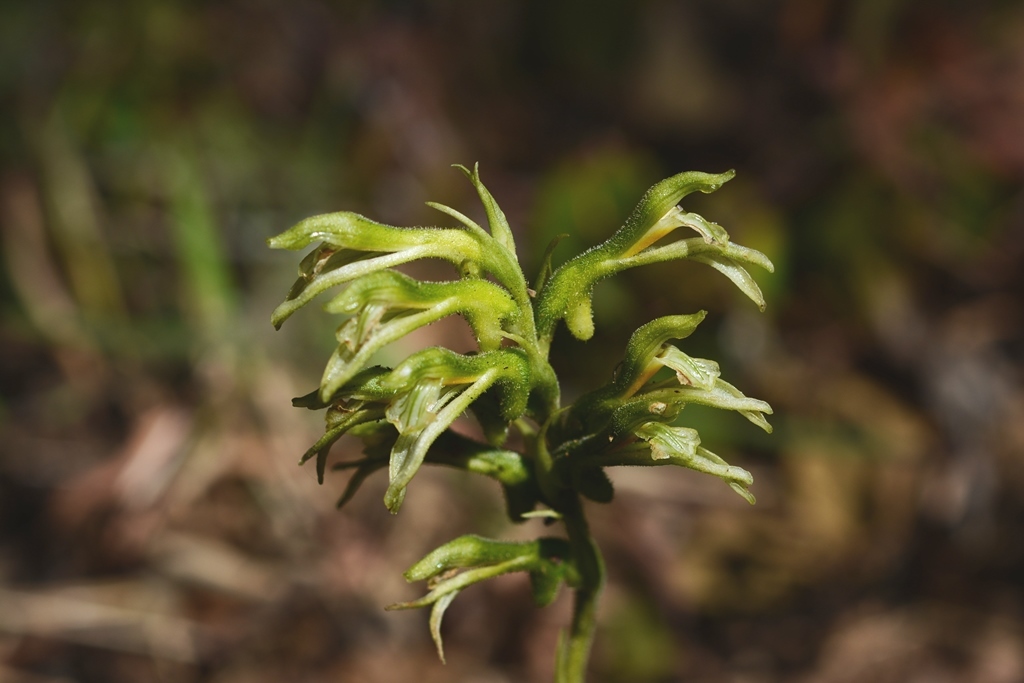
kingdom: Plantae
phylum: Tracheophyta
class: Liliopsida
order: Asparagales
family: Orchidaceae
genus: Pelexia
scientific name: Pelexia gutturosa
